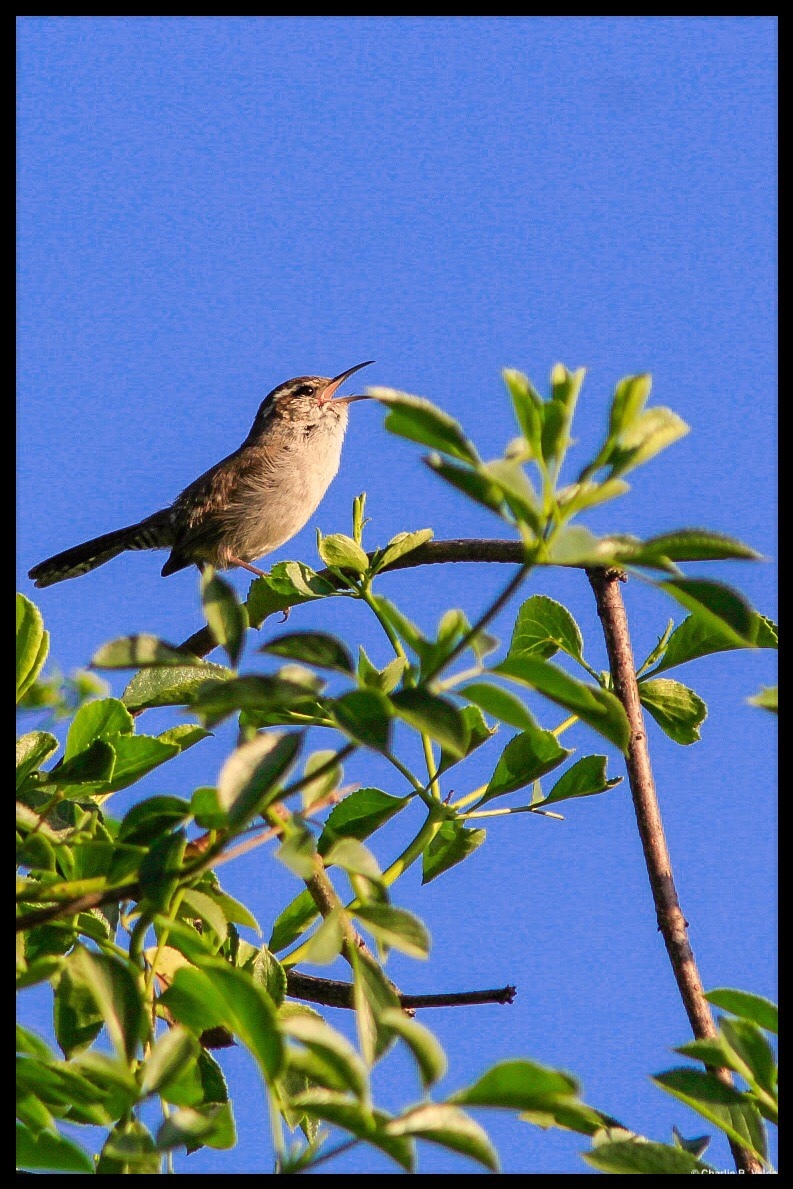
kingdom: Animalia
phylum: Chordata
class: Aves
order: Passeriformes
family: Troglodytidae
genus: Thryomanes
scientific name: Thryomanes bewickii
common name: Bewick's wren
